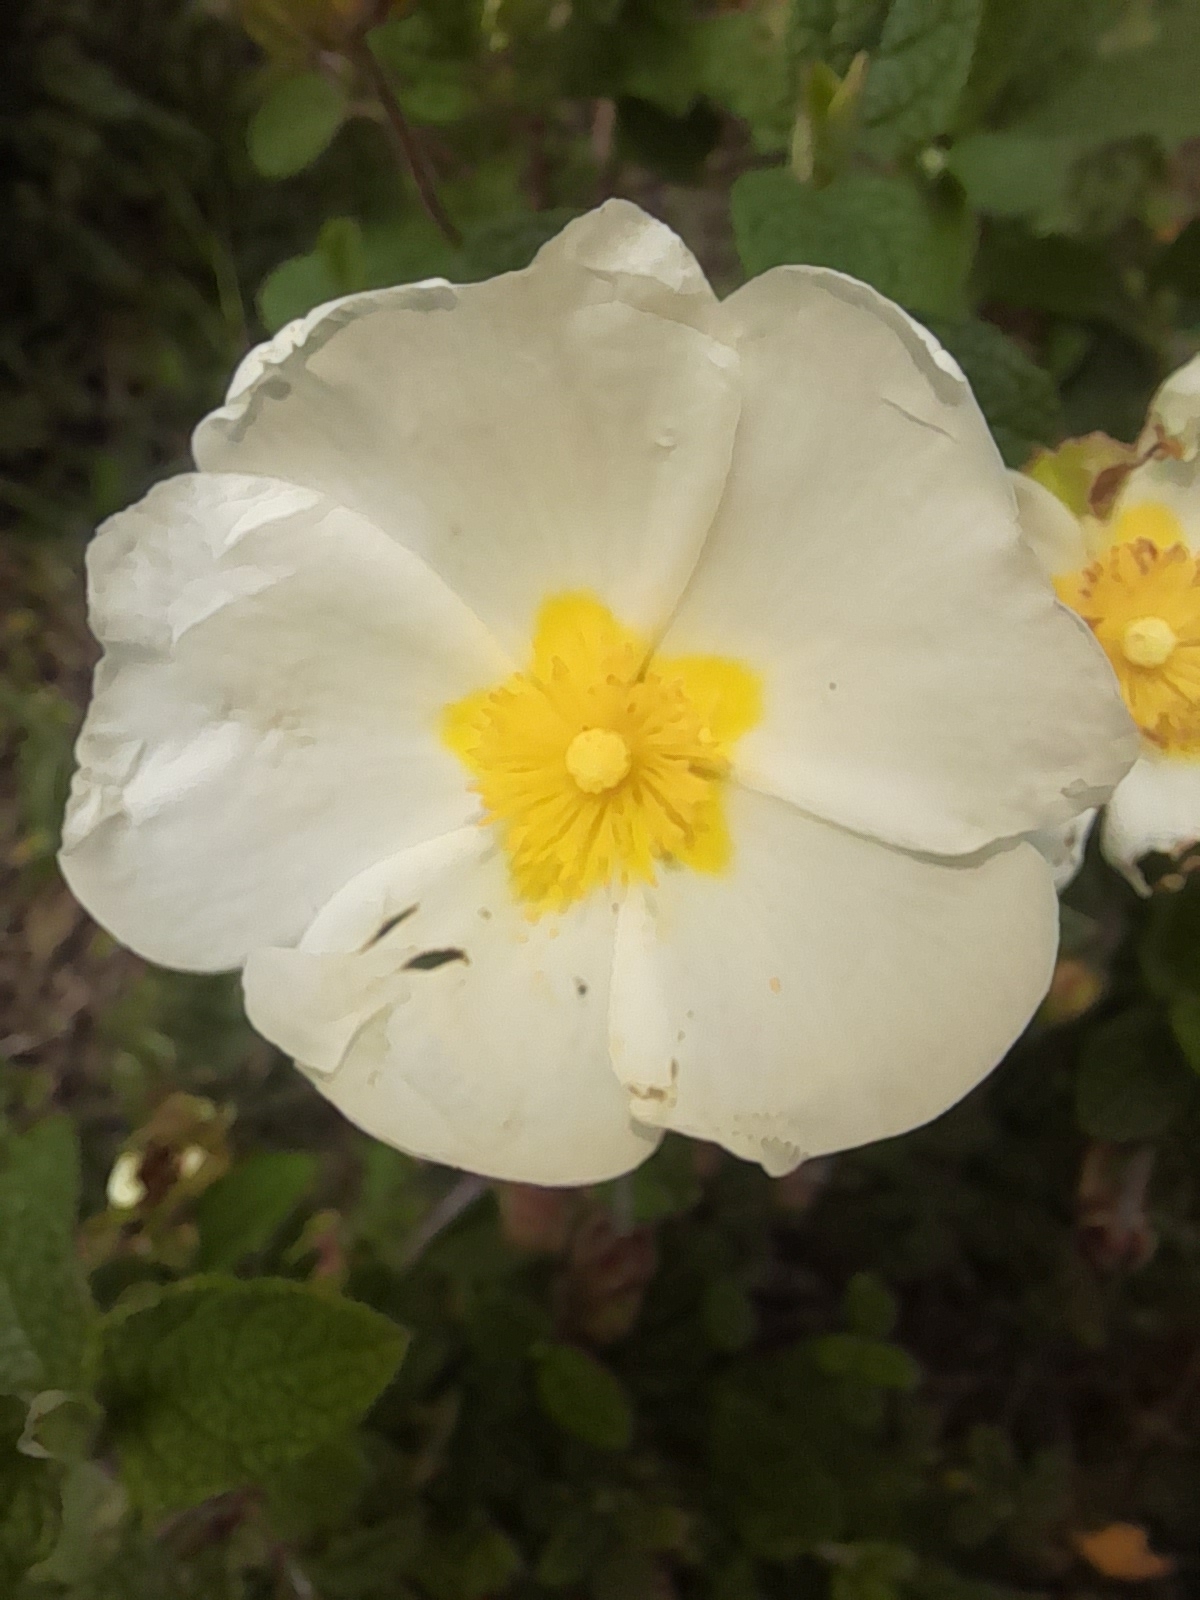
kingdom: Plantae
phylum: Tracheophyta
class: Magnoliopsida
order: Malvales
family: Cistaceae
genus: Cistus
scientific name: Cistus salviifolius
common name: Salvia cistus
